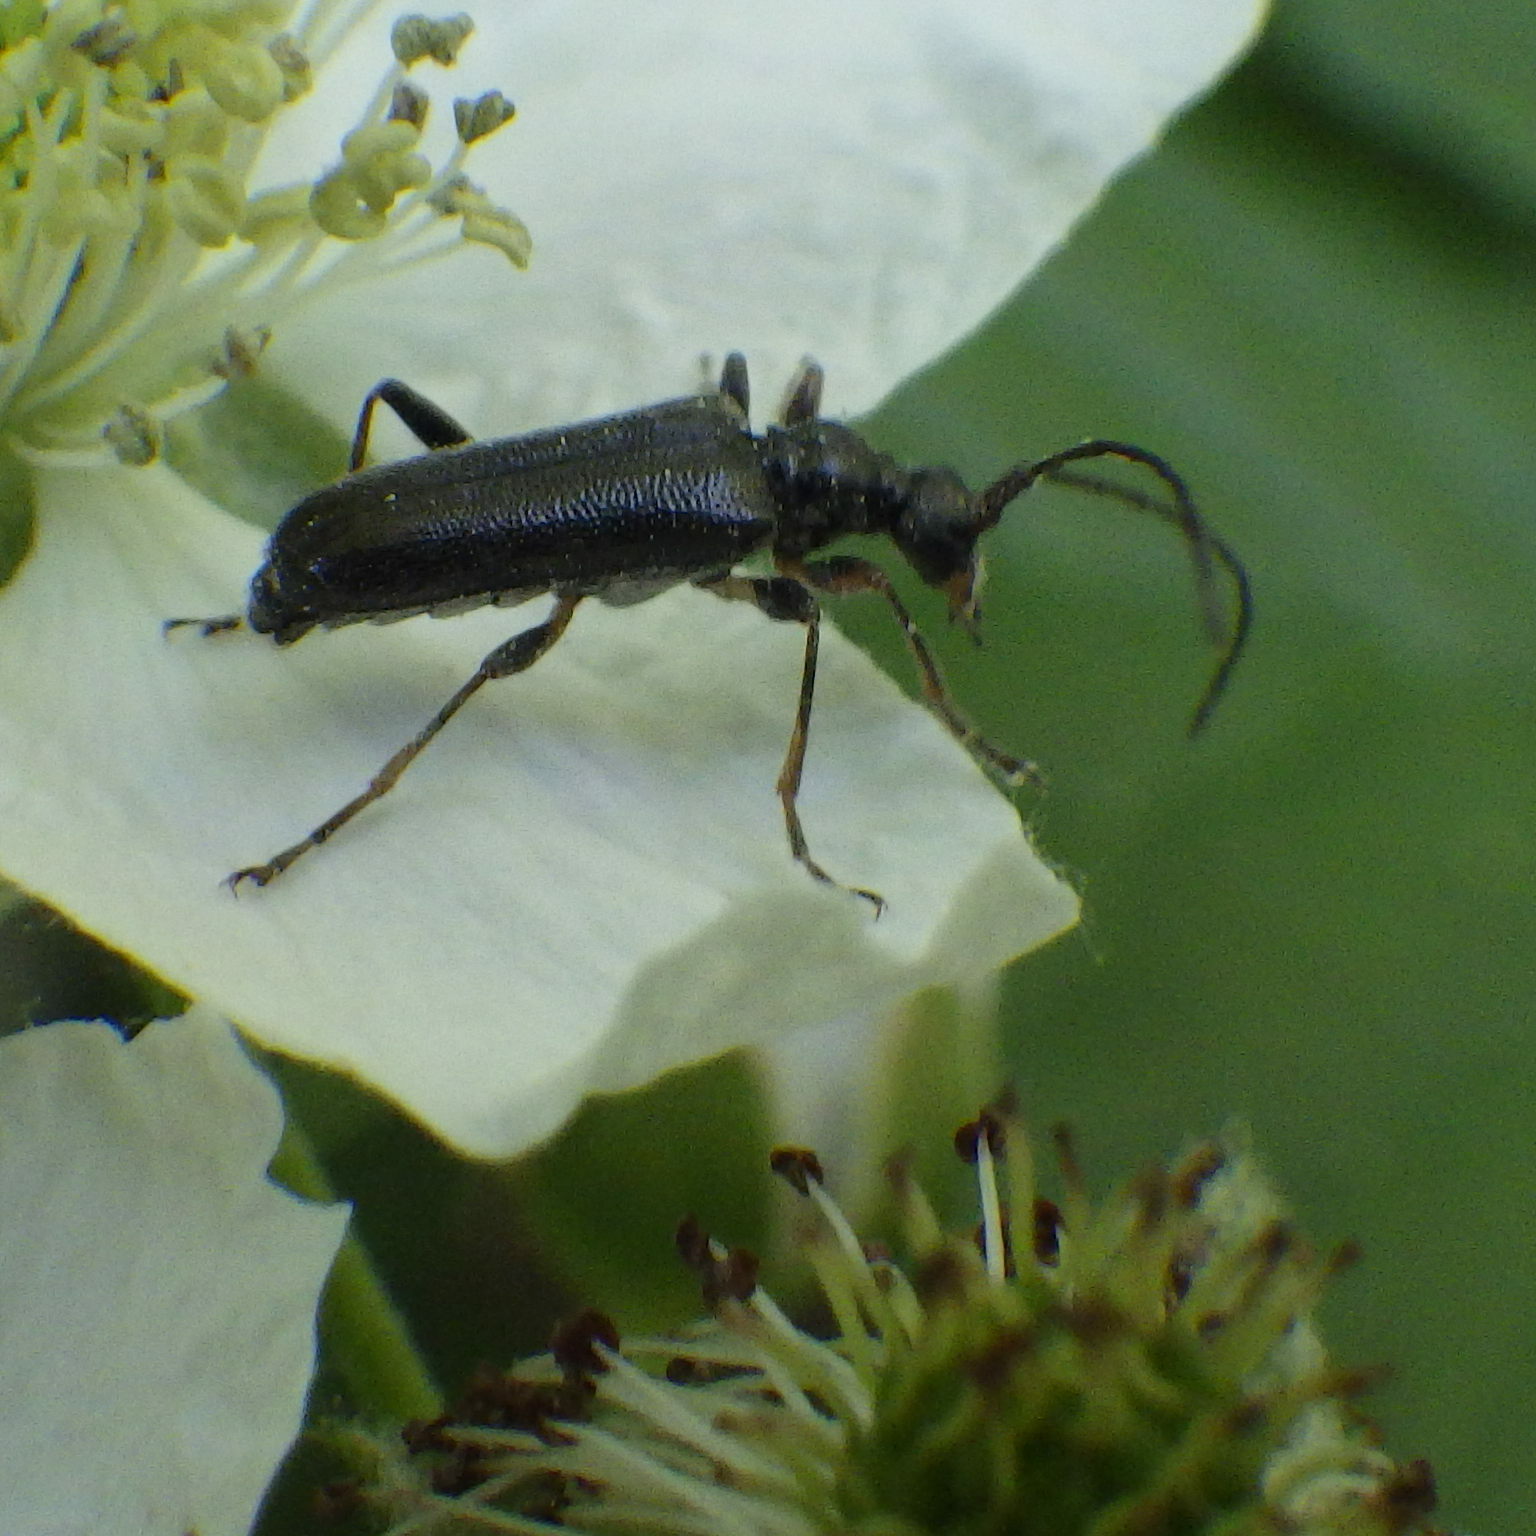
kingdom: Animalia
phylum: Arthropoda
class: Insecta
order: Coleoptera
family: Cerambycidae
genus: Grammoptera
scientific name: Grammoptera subargentata
